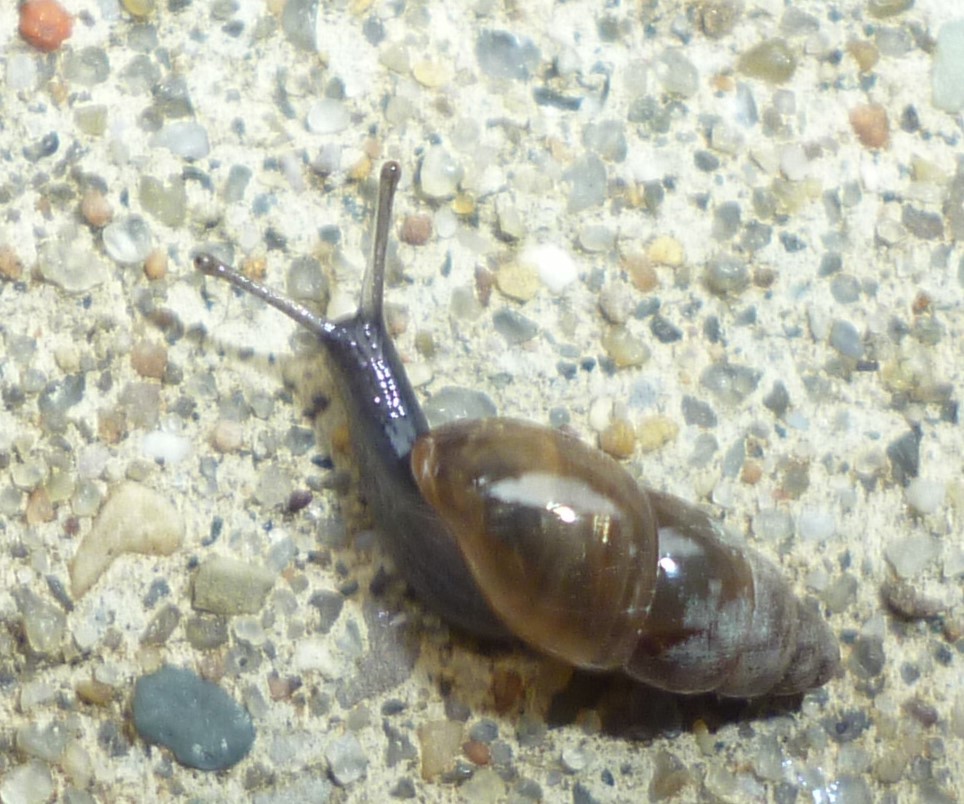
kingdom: Animalia
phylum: Mollusca
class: Gastropoda
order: Stylommatophora
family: Cochlicopidae
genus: Cochlicopa
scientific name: Cochlicopa lubrica
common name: Glossy pillar snail
